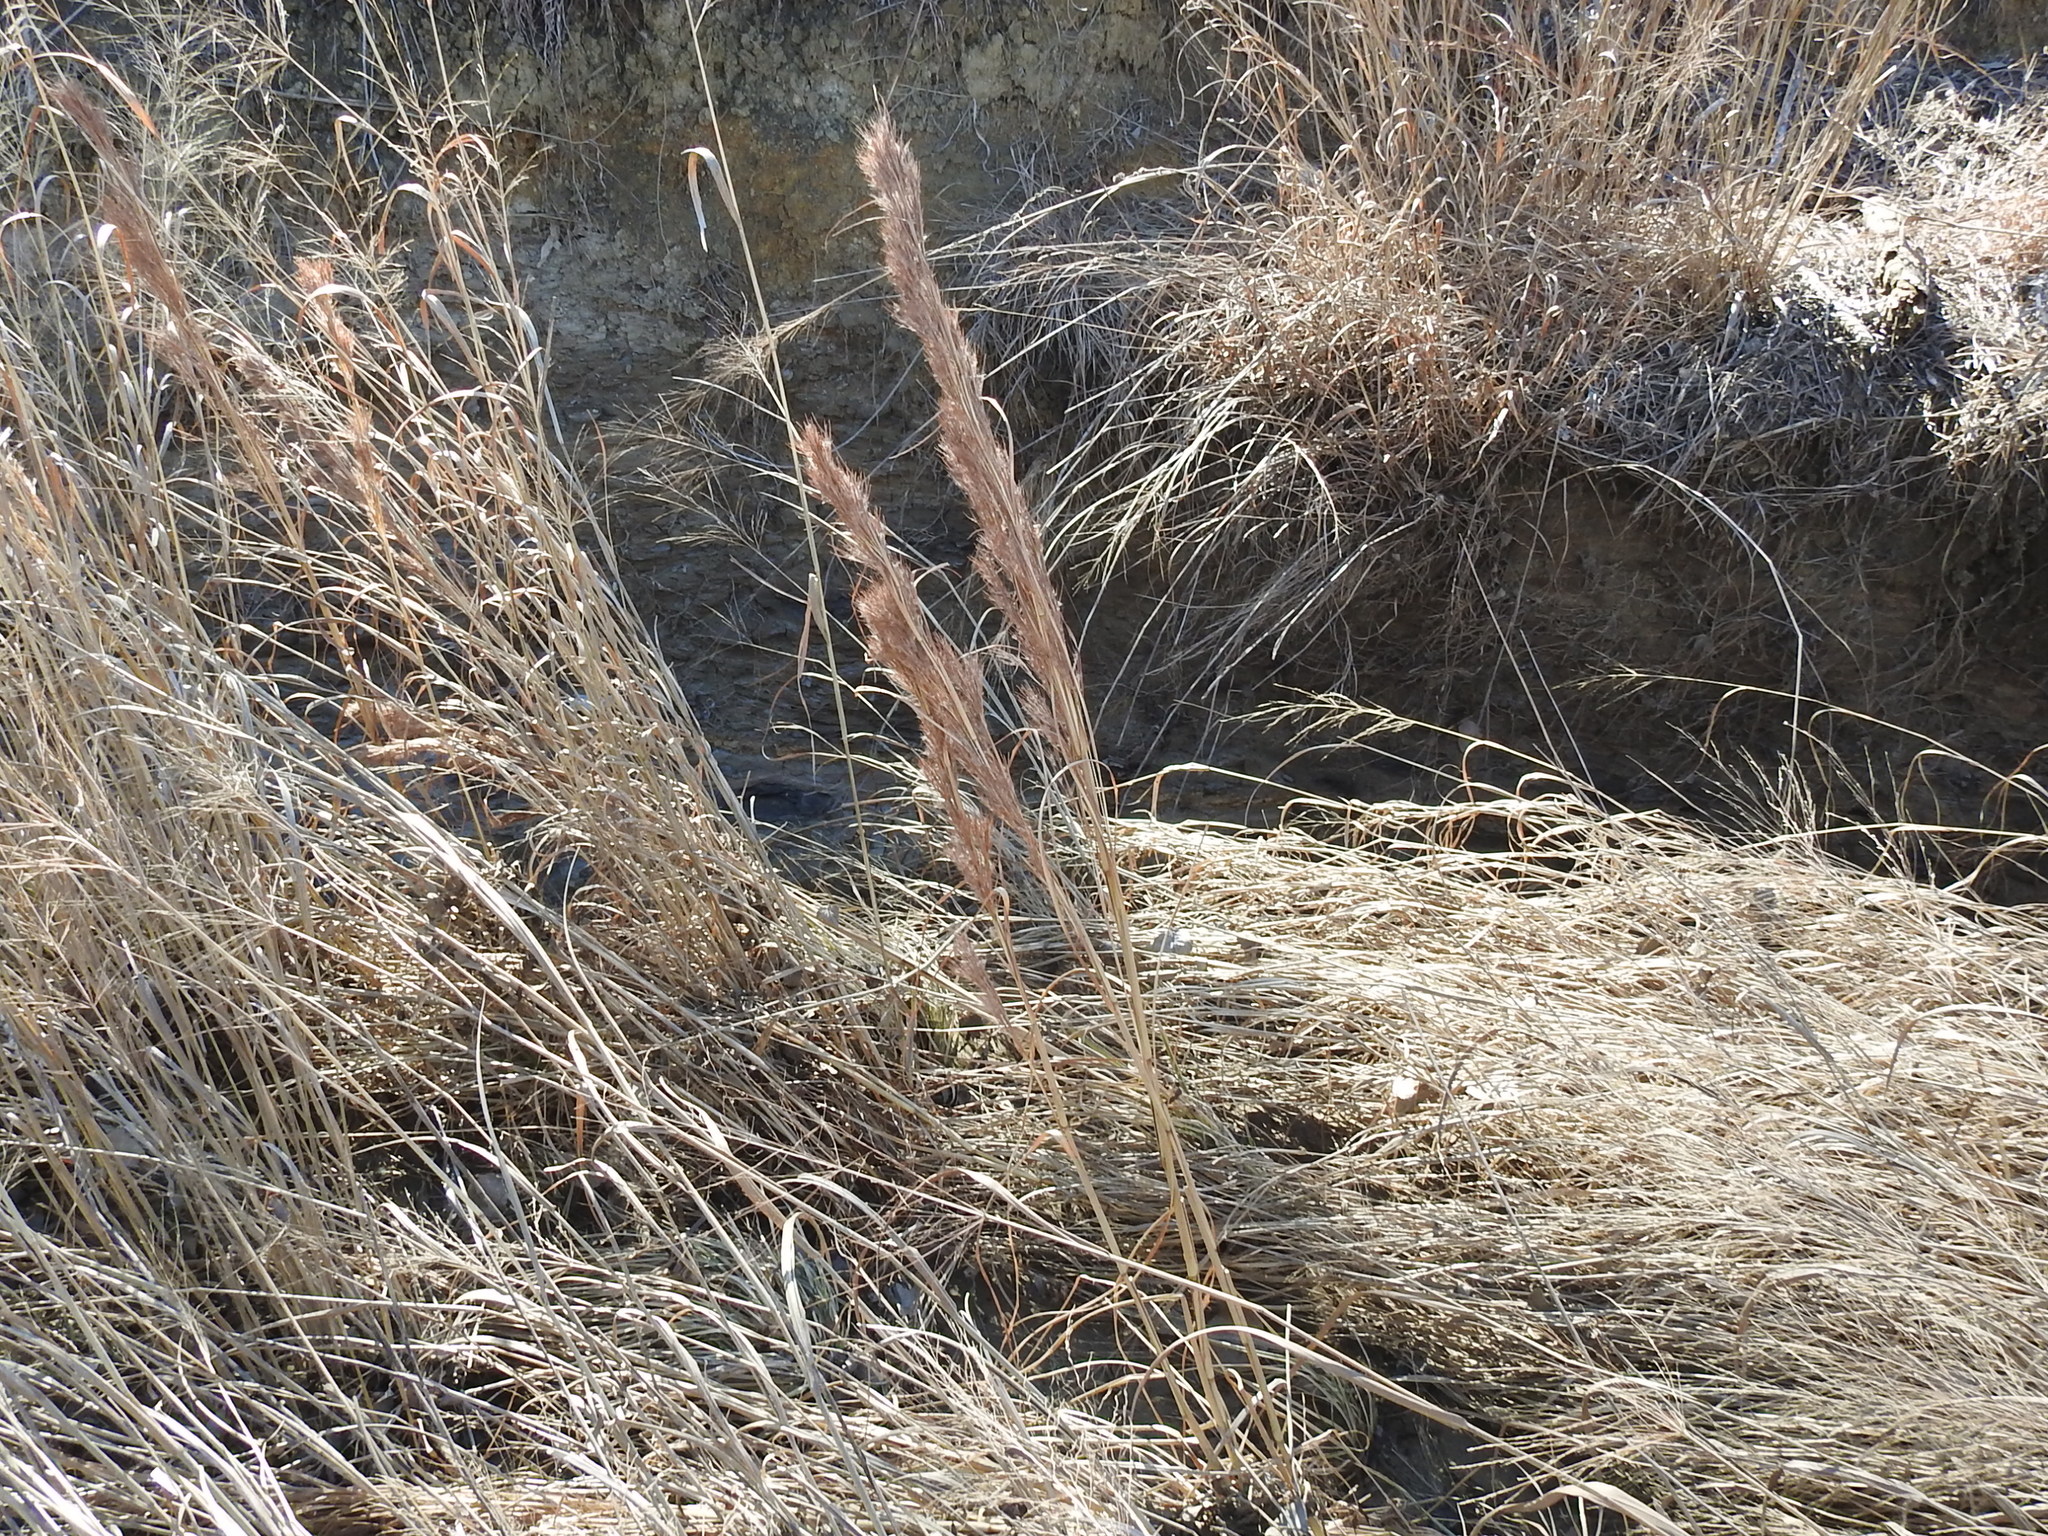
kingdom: Plantae
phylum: Tracheophyta
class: Liliopsida
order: Poales
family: Poaceae
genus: Andropogon
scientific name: Andropogon tenuispatheus
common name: Bushy bluestem
